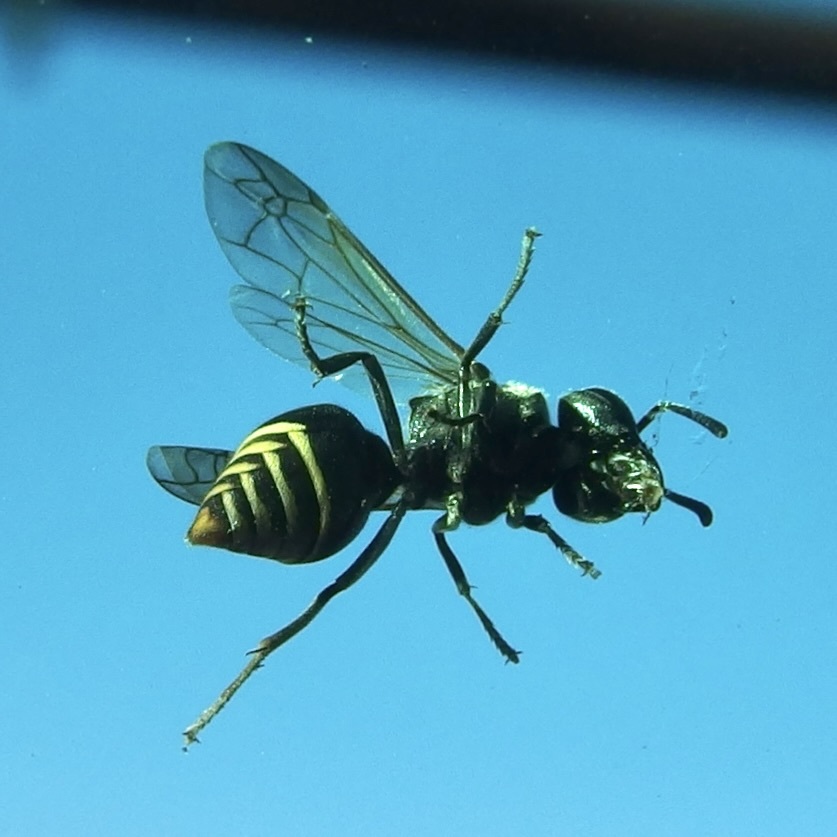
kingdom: Animalia
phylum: Arthropoda
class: Insecta
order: Hymenoptera
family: Vespidae
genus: Brachygastra
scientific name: Brachygastra mellifica
